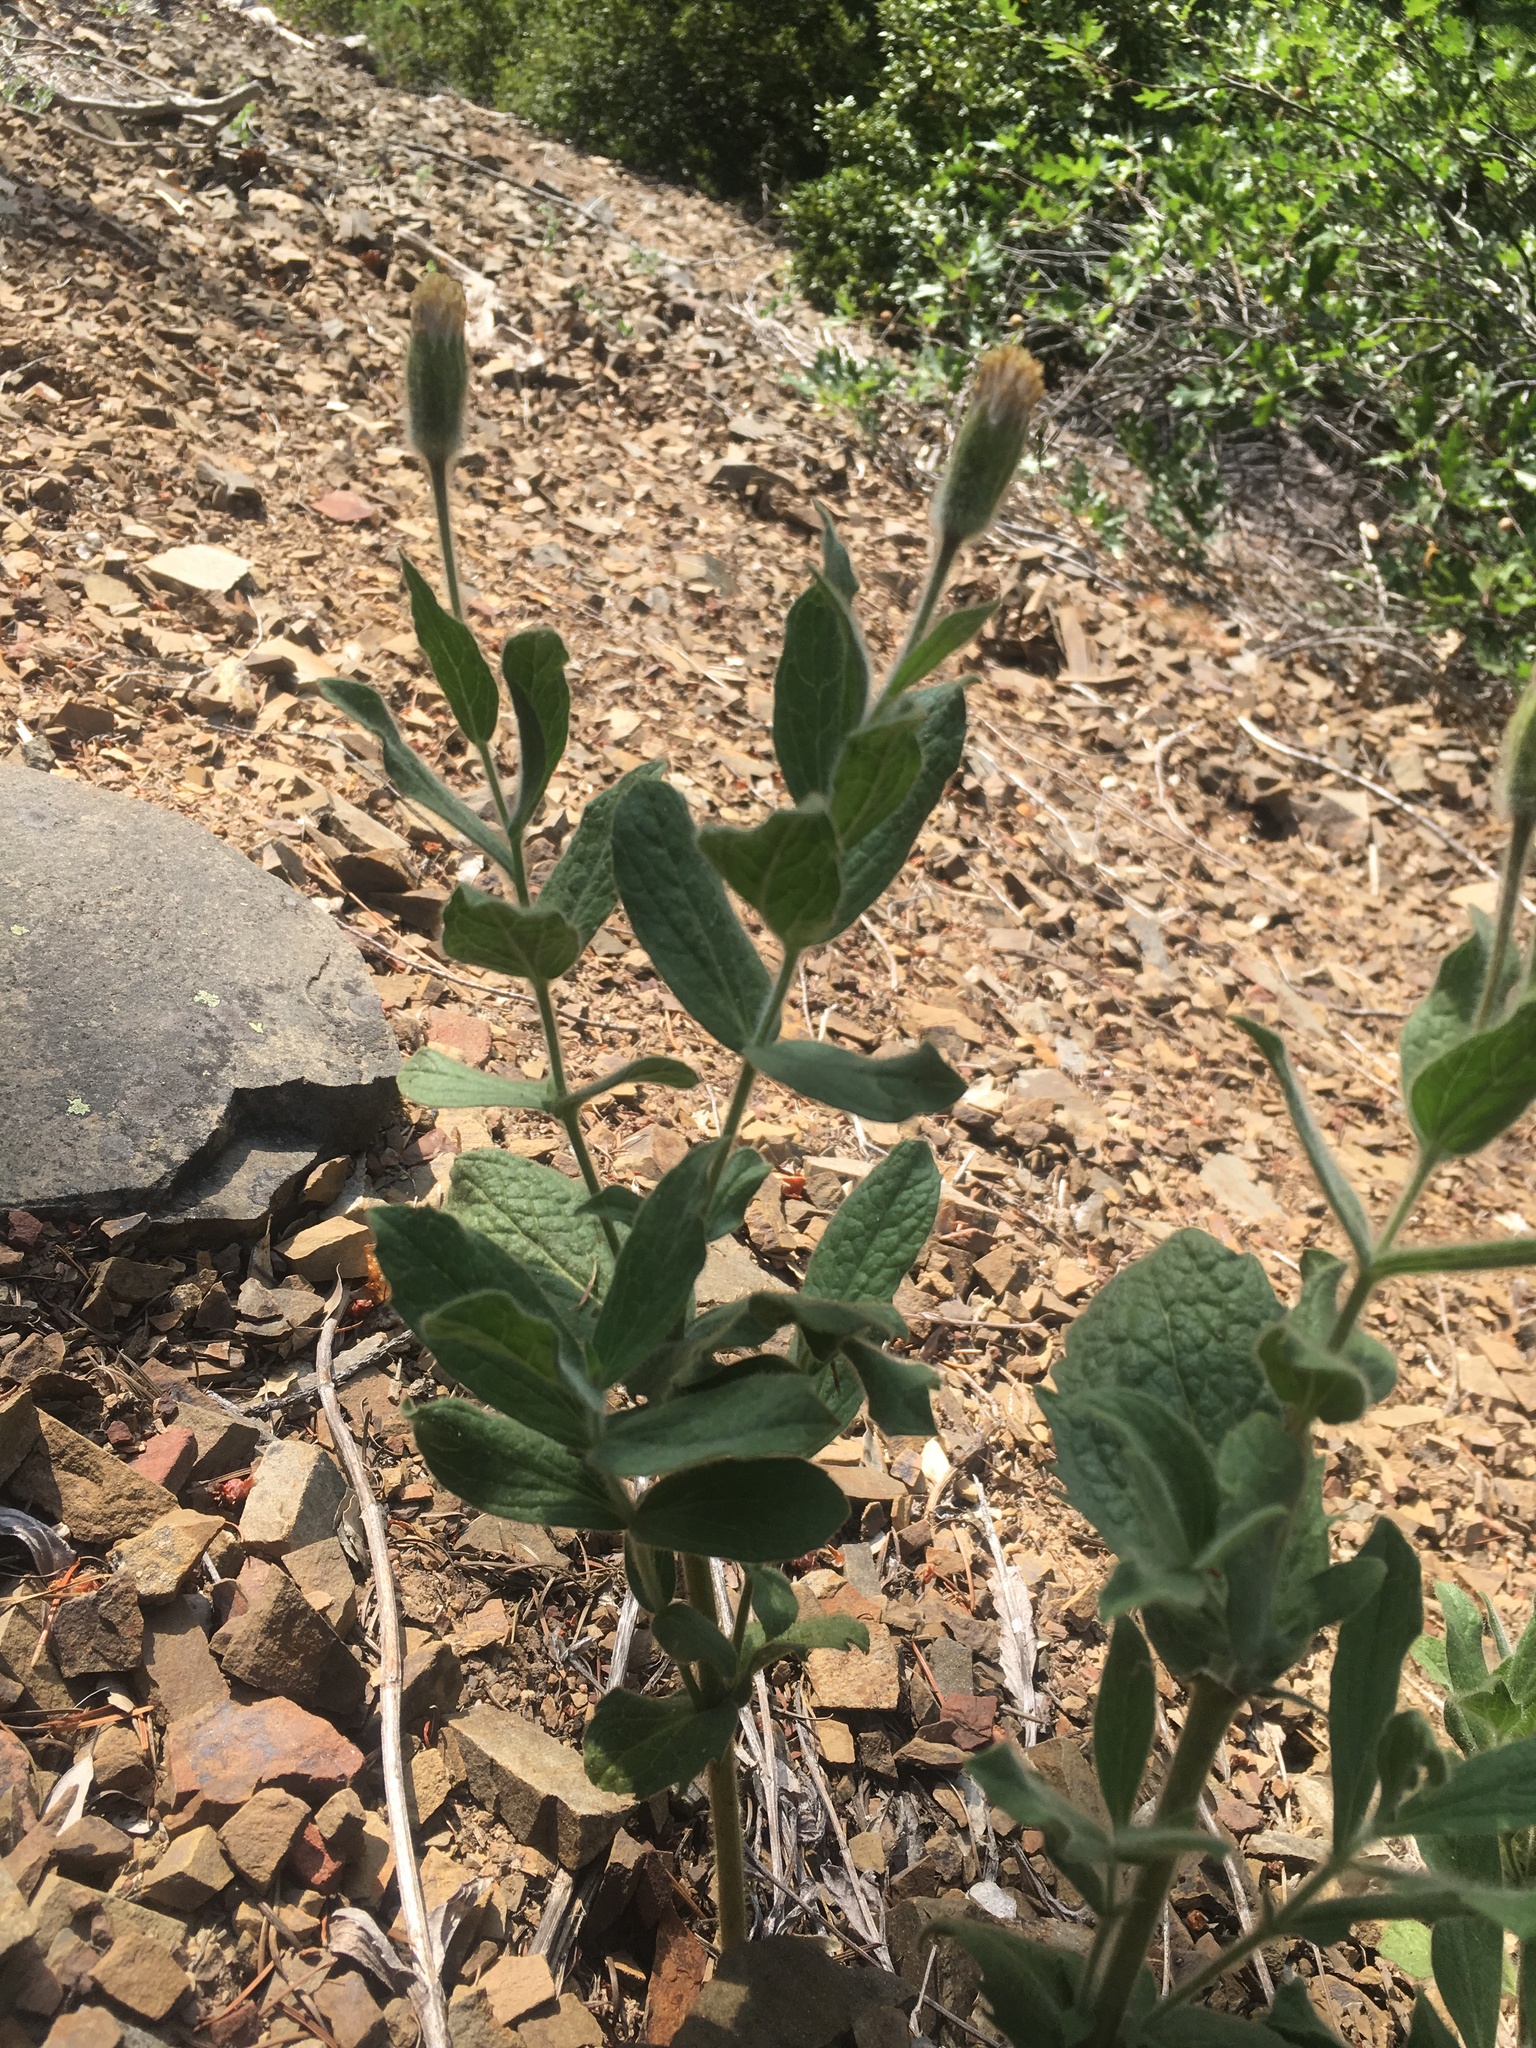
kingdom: Plantae
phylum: Tracheophyta
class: Magnoliopsida
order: Asterales
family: Asteraceae
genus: Arnica
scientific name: Arnica venosa
